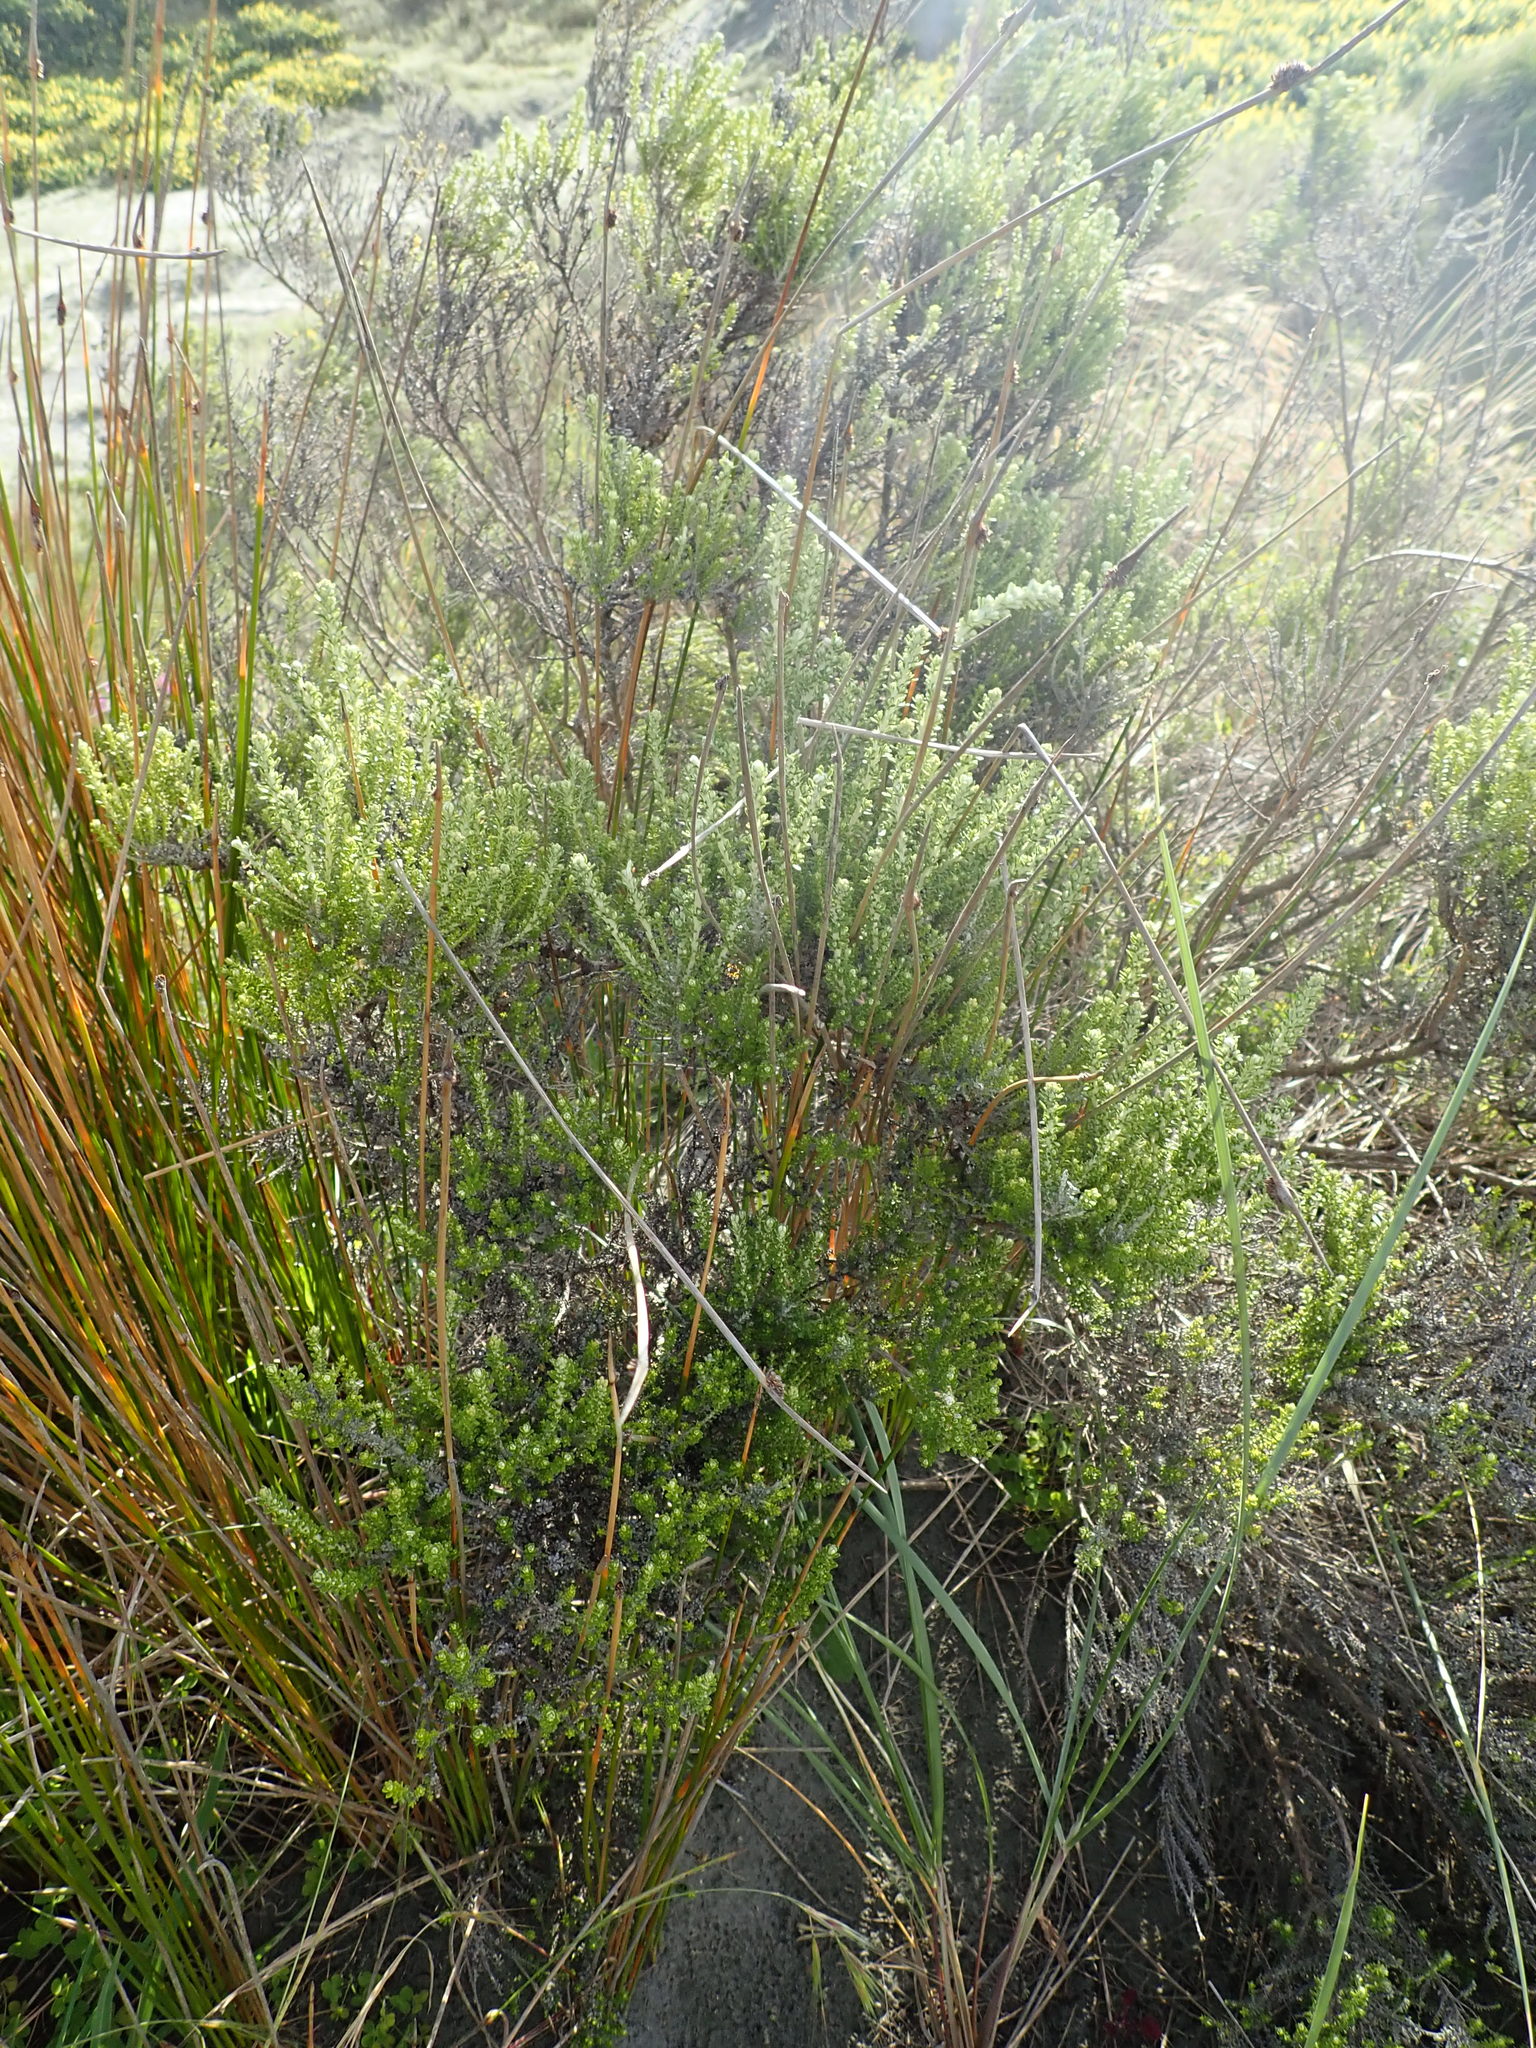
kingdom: Plantae
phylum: Tracheophyta
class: Magnoliopsida
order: Asterales
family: Asteraceae
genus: Ozothamnus
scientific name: Ozothamnus leptophyllus
